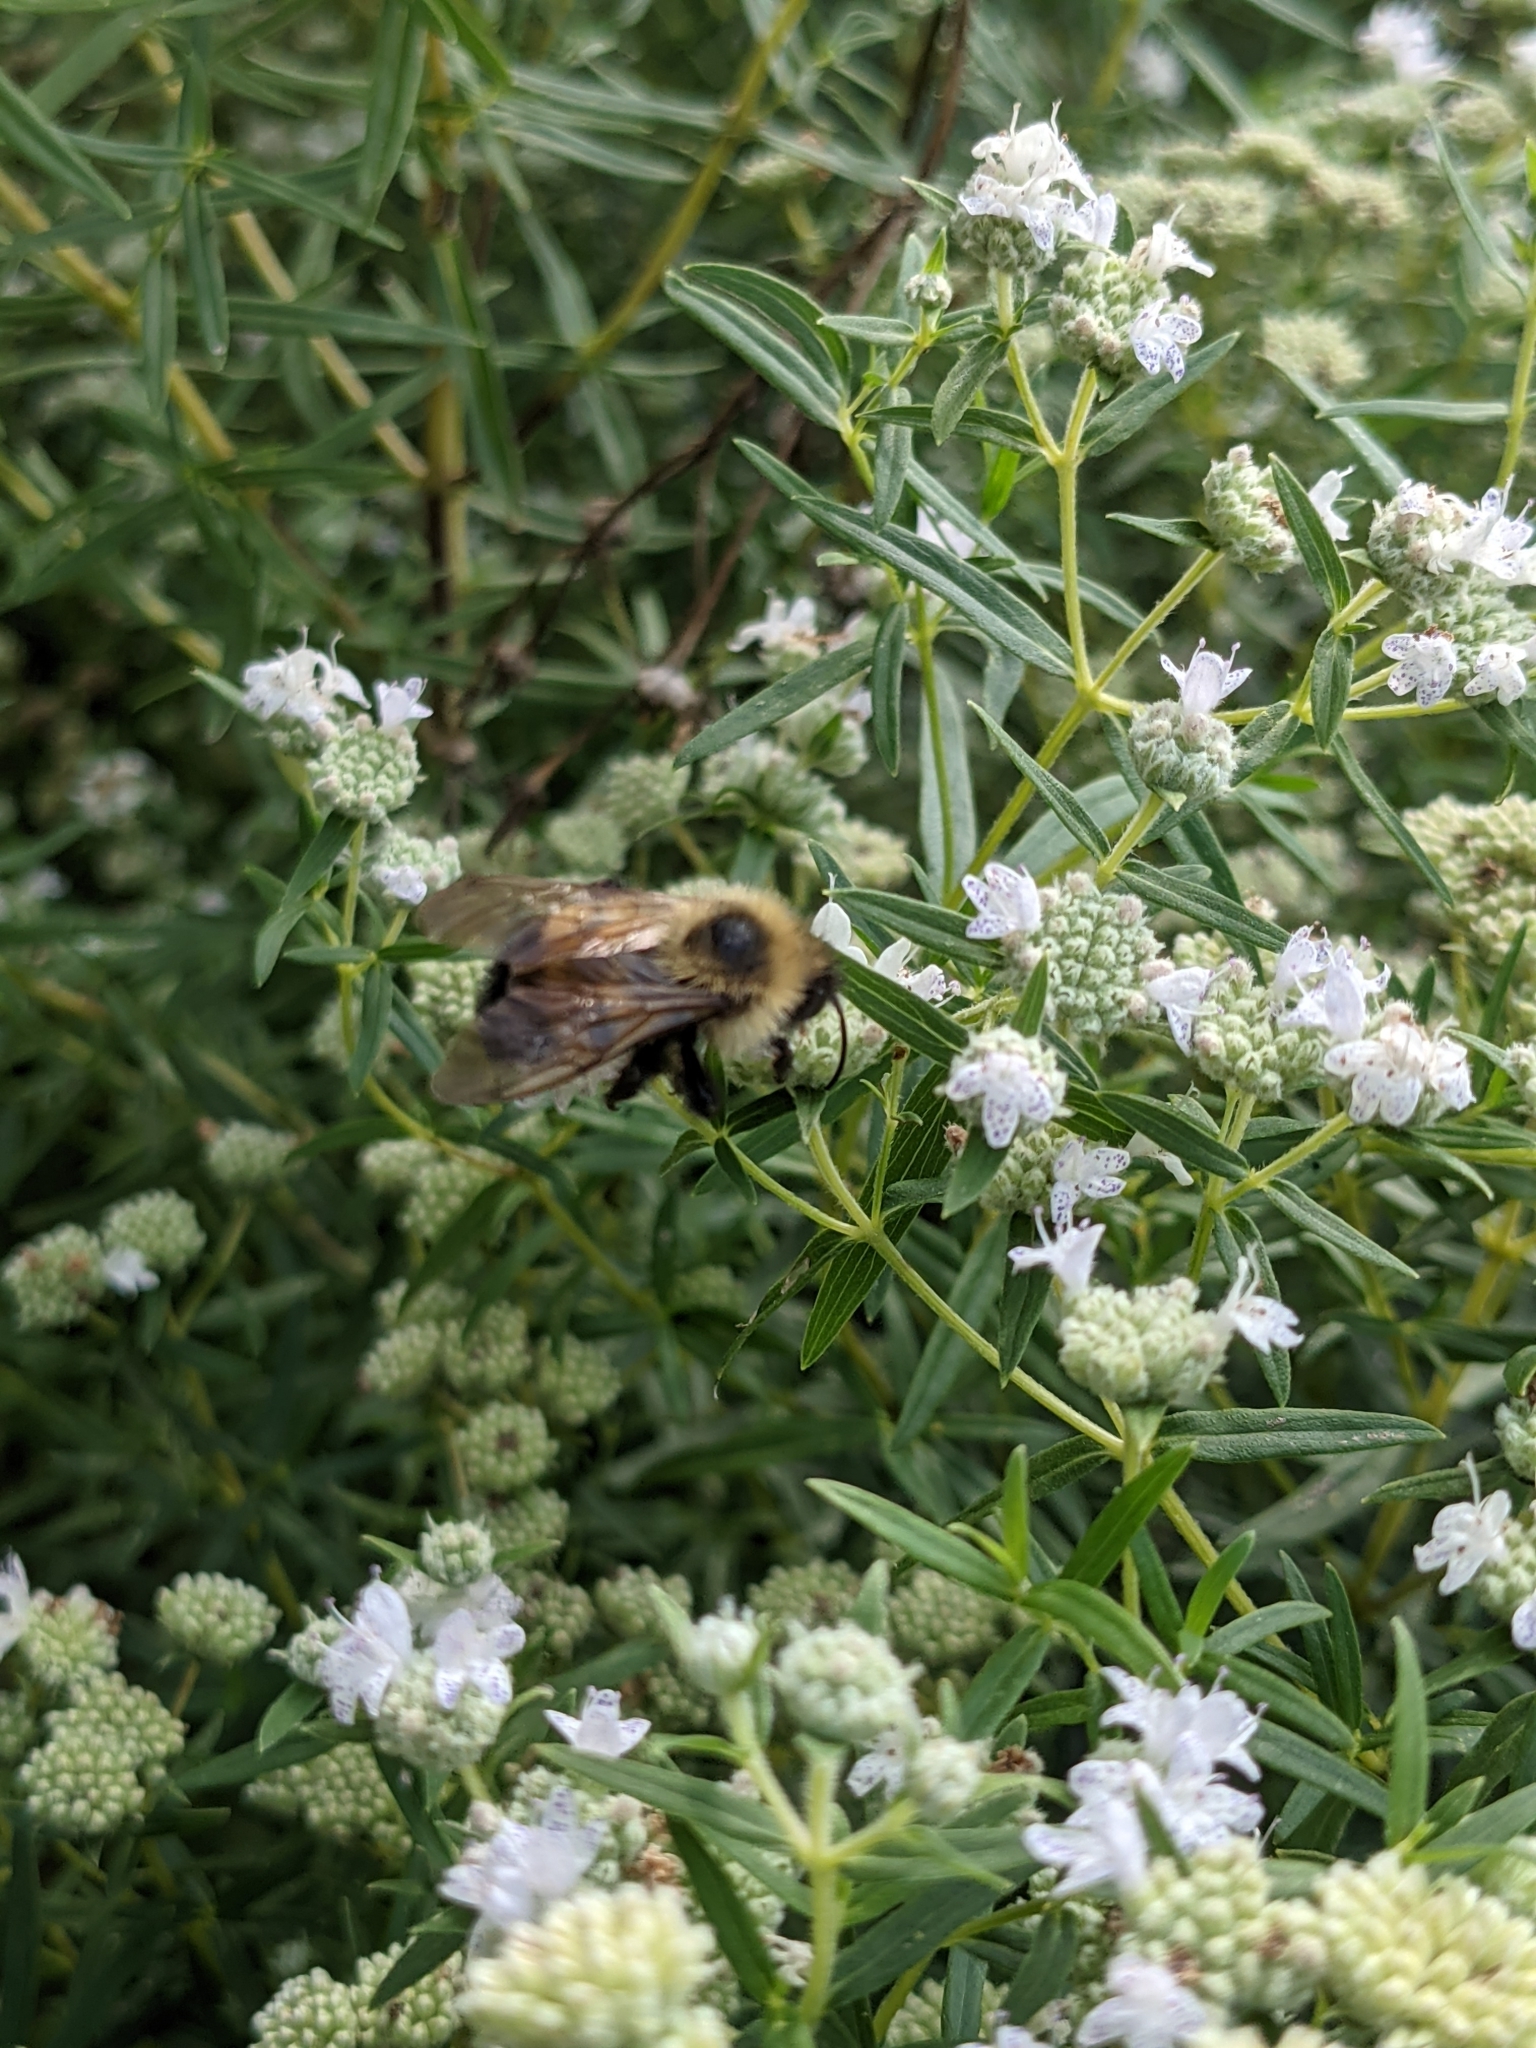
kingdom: Animalia
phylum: Arthropoda
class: Insecta
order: Hymenoptera
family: Apidae
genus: Bombus
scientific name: Bombus citrinus
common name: Lemon cuckoo bumble bee
